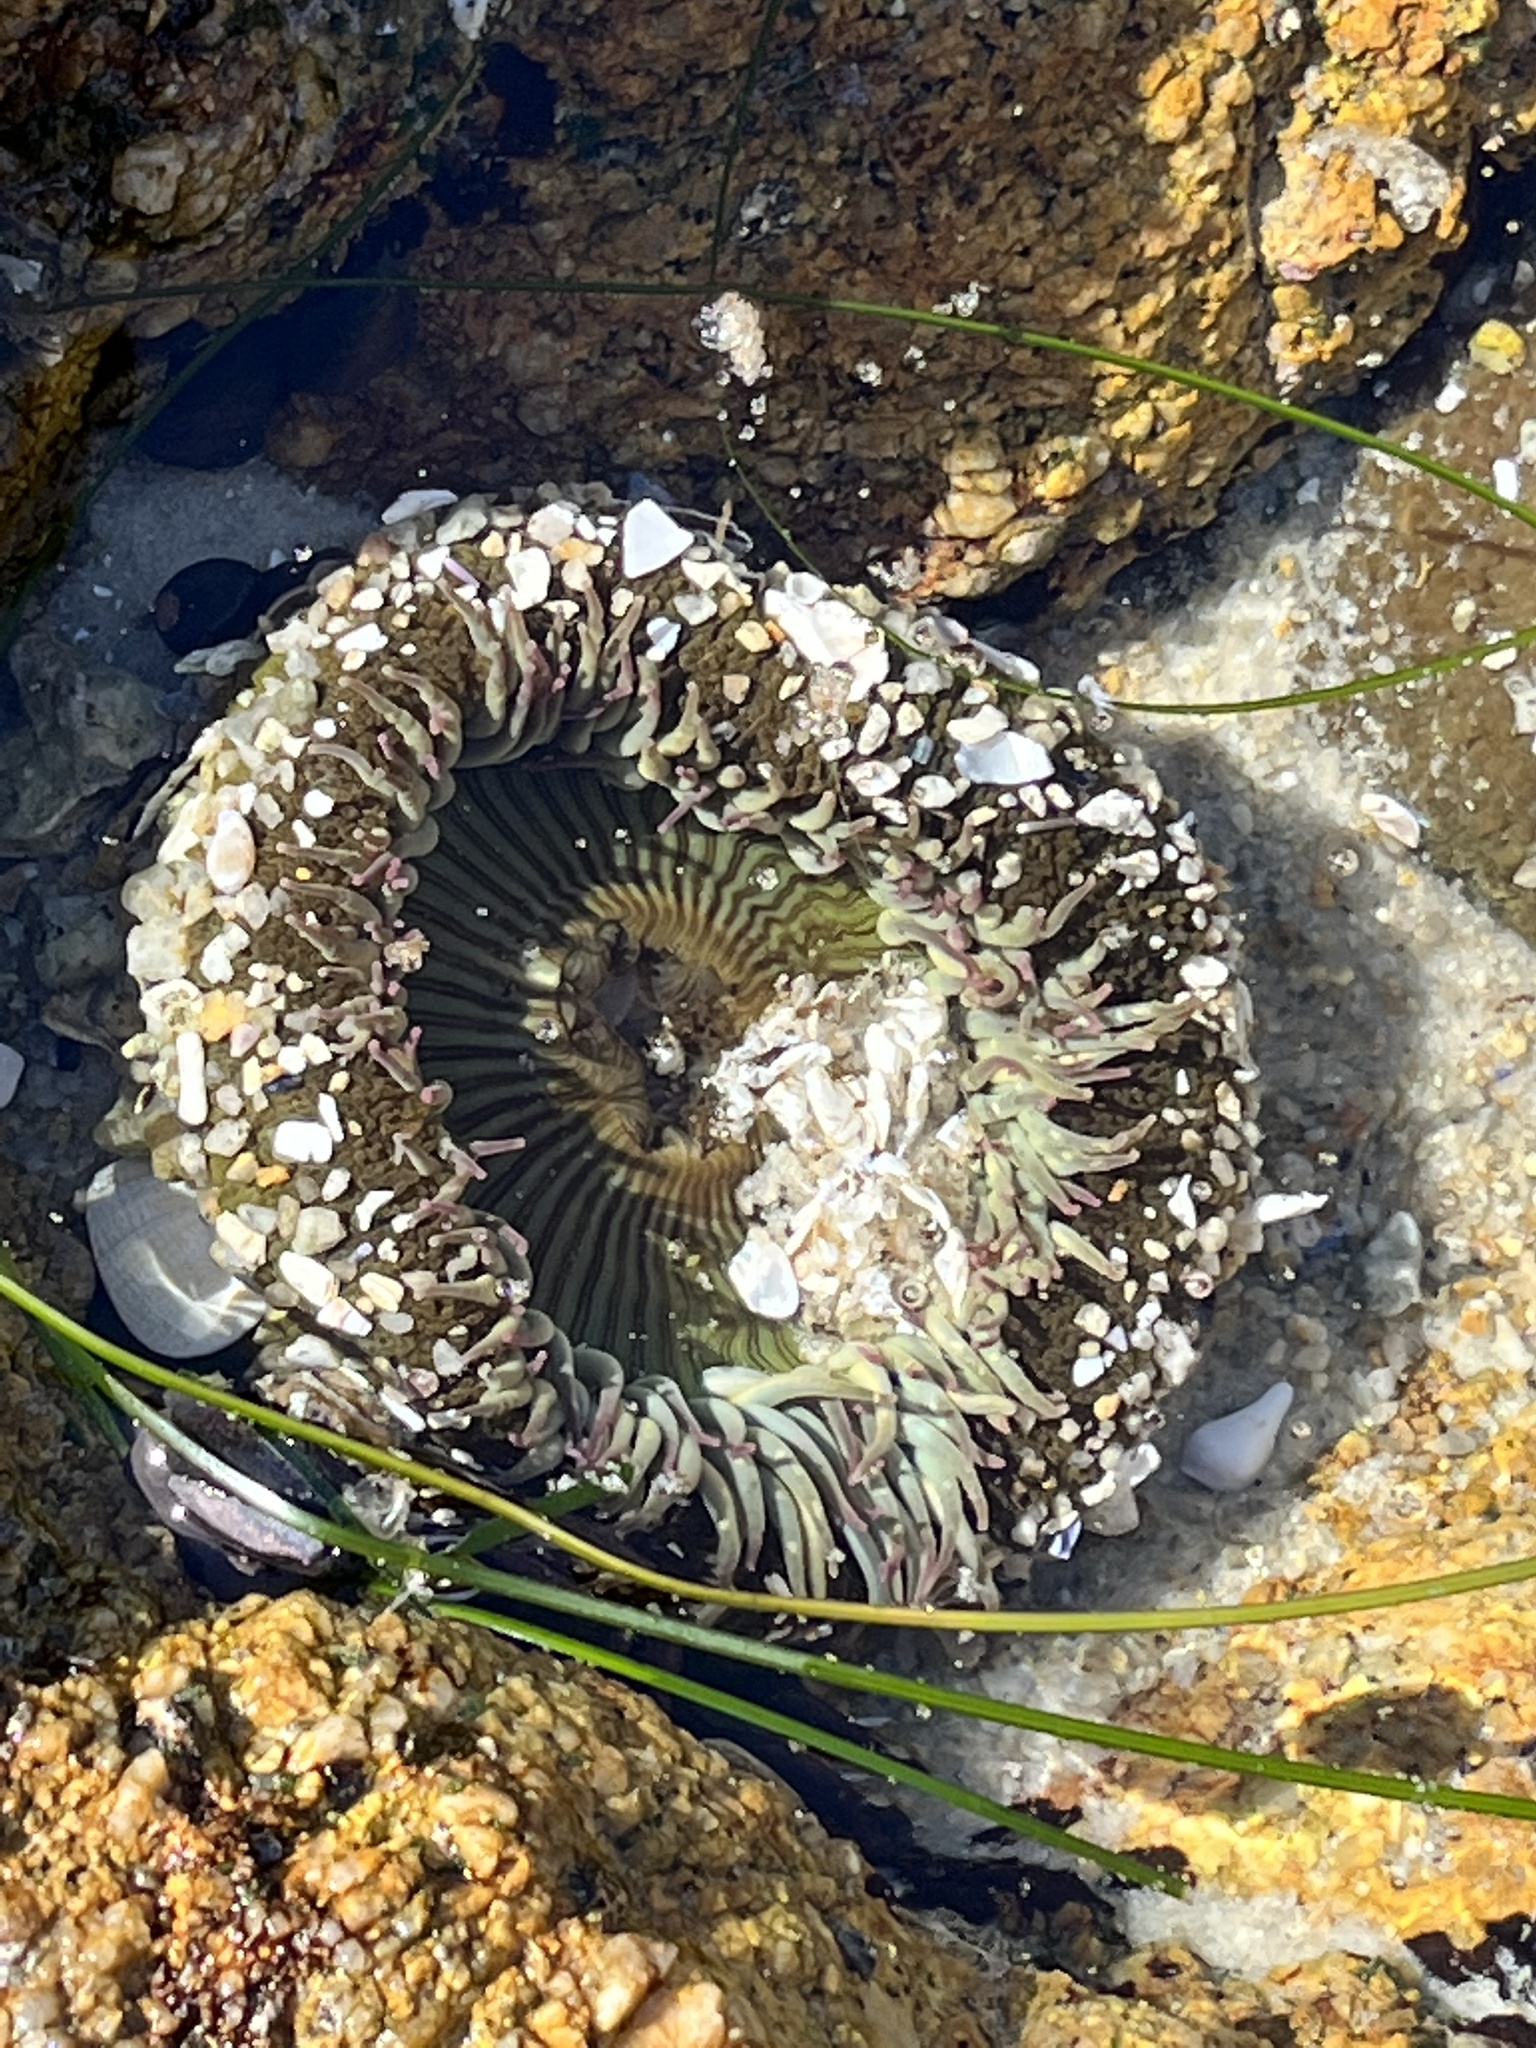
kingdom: Animalia
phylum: Cnidaria
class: Anthozoa
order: Actiniaria
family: Actiniidae
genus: Anthopleura
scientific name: Anthopleura sola
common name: Sun anemone
